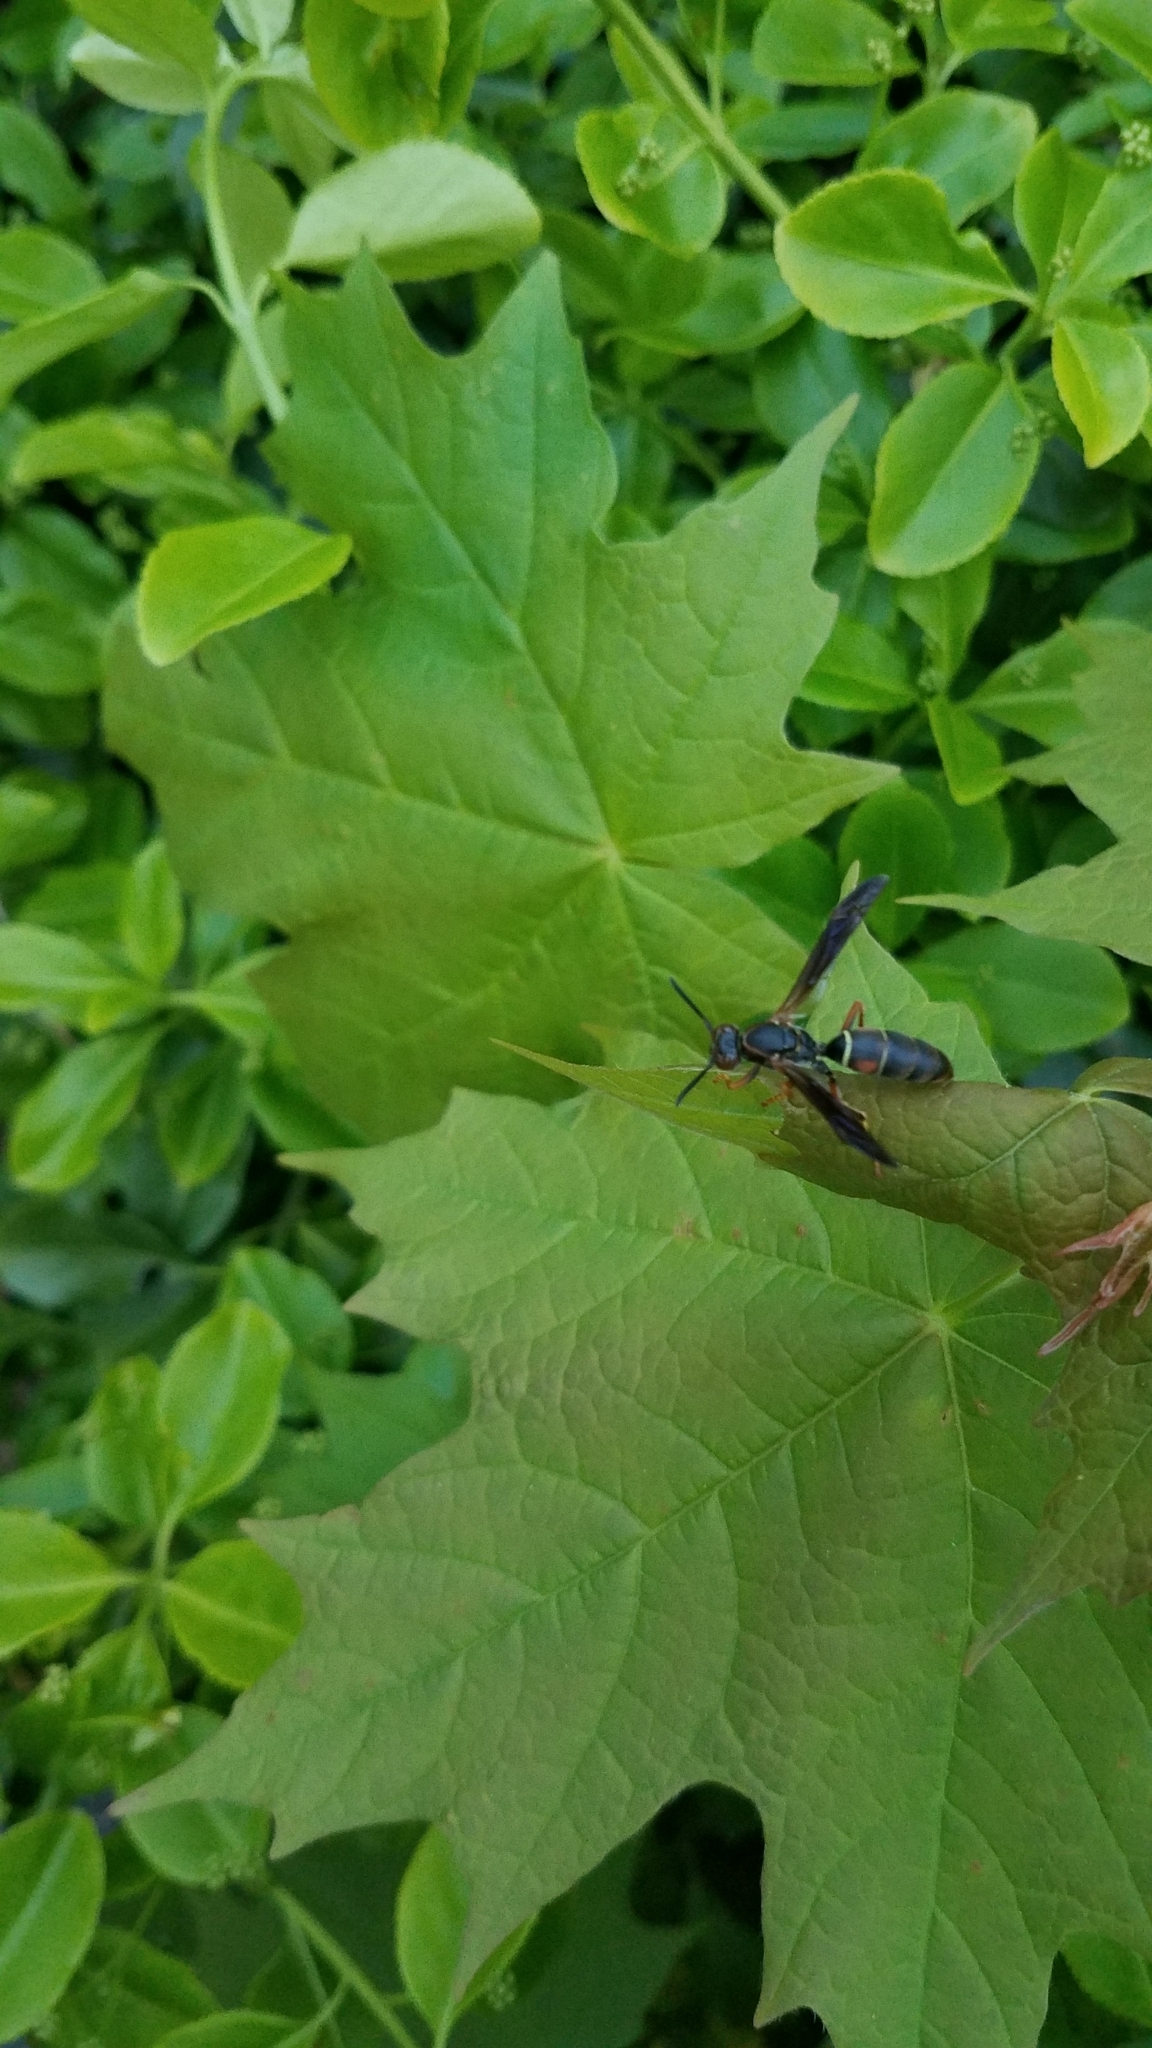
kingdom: Animalia
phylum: Arthropoda
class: Insecta
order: Hymenoptera
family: Eumenidae
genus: Polistes
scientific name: Polistes fuscatus
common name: Dark paper wasp
